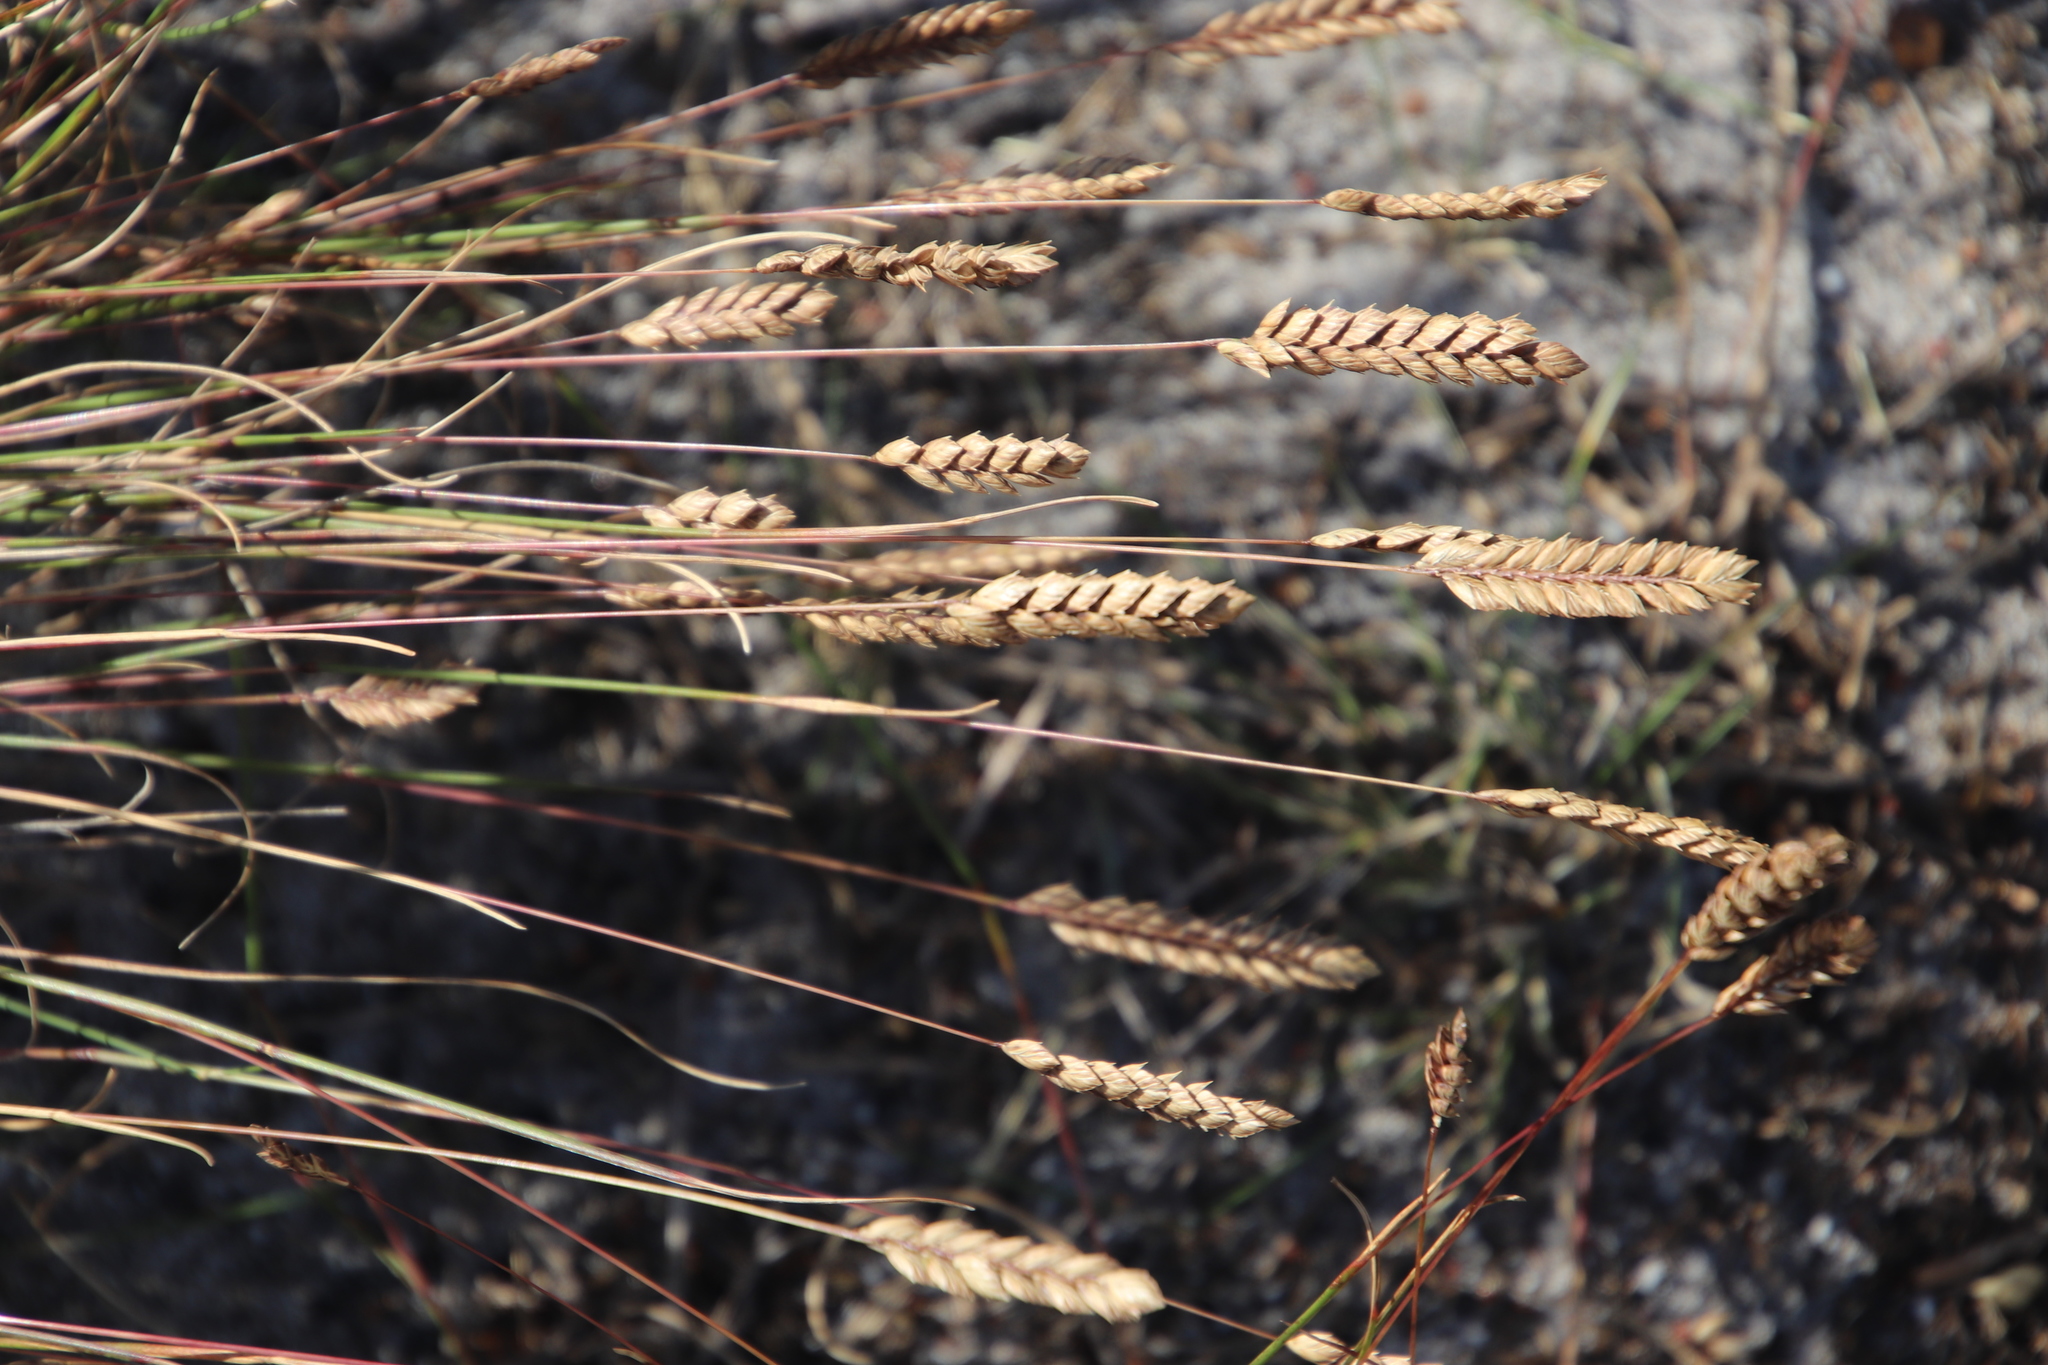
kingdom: Plantae
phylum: Tracheophyta
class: Liliopsida
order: Poales
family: Poaceae
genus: Tribolium
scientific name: Tribolium uniolae
